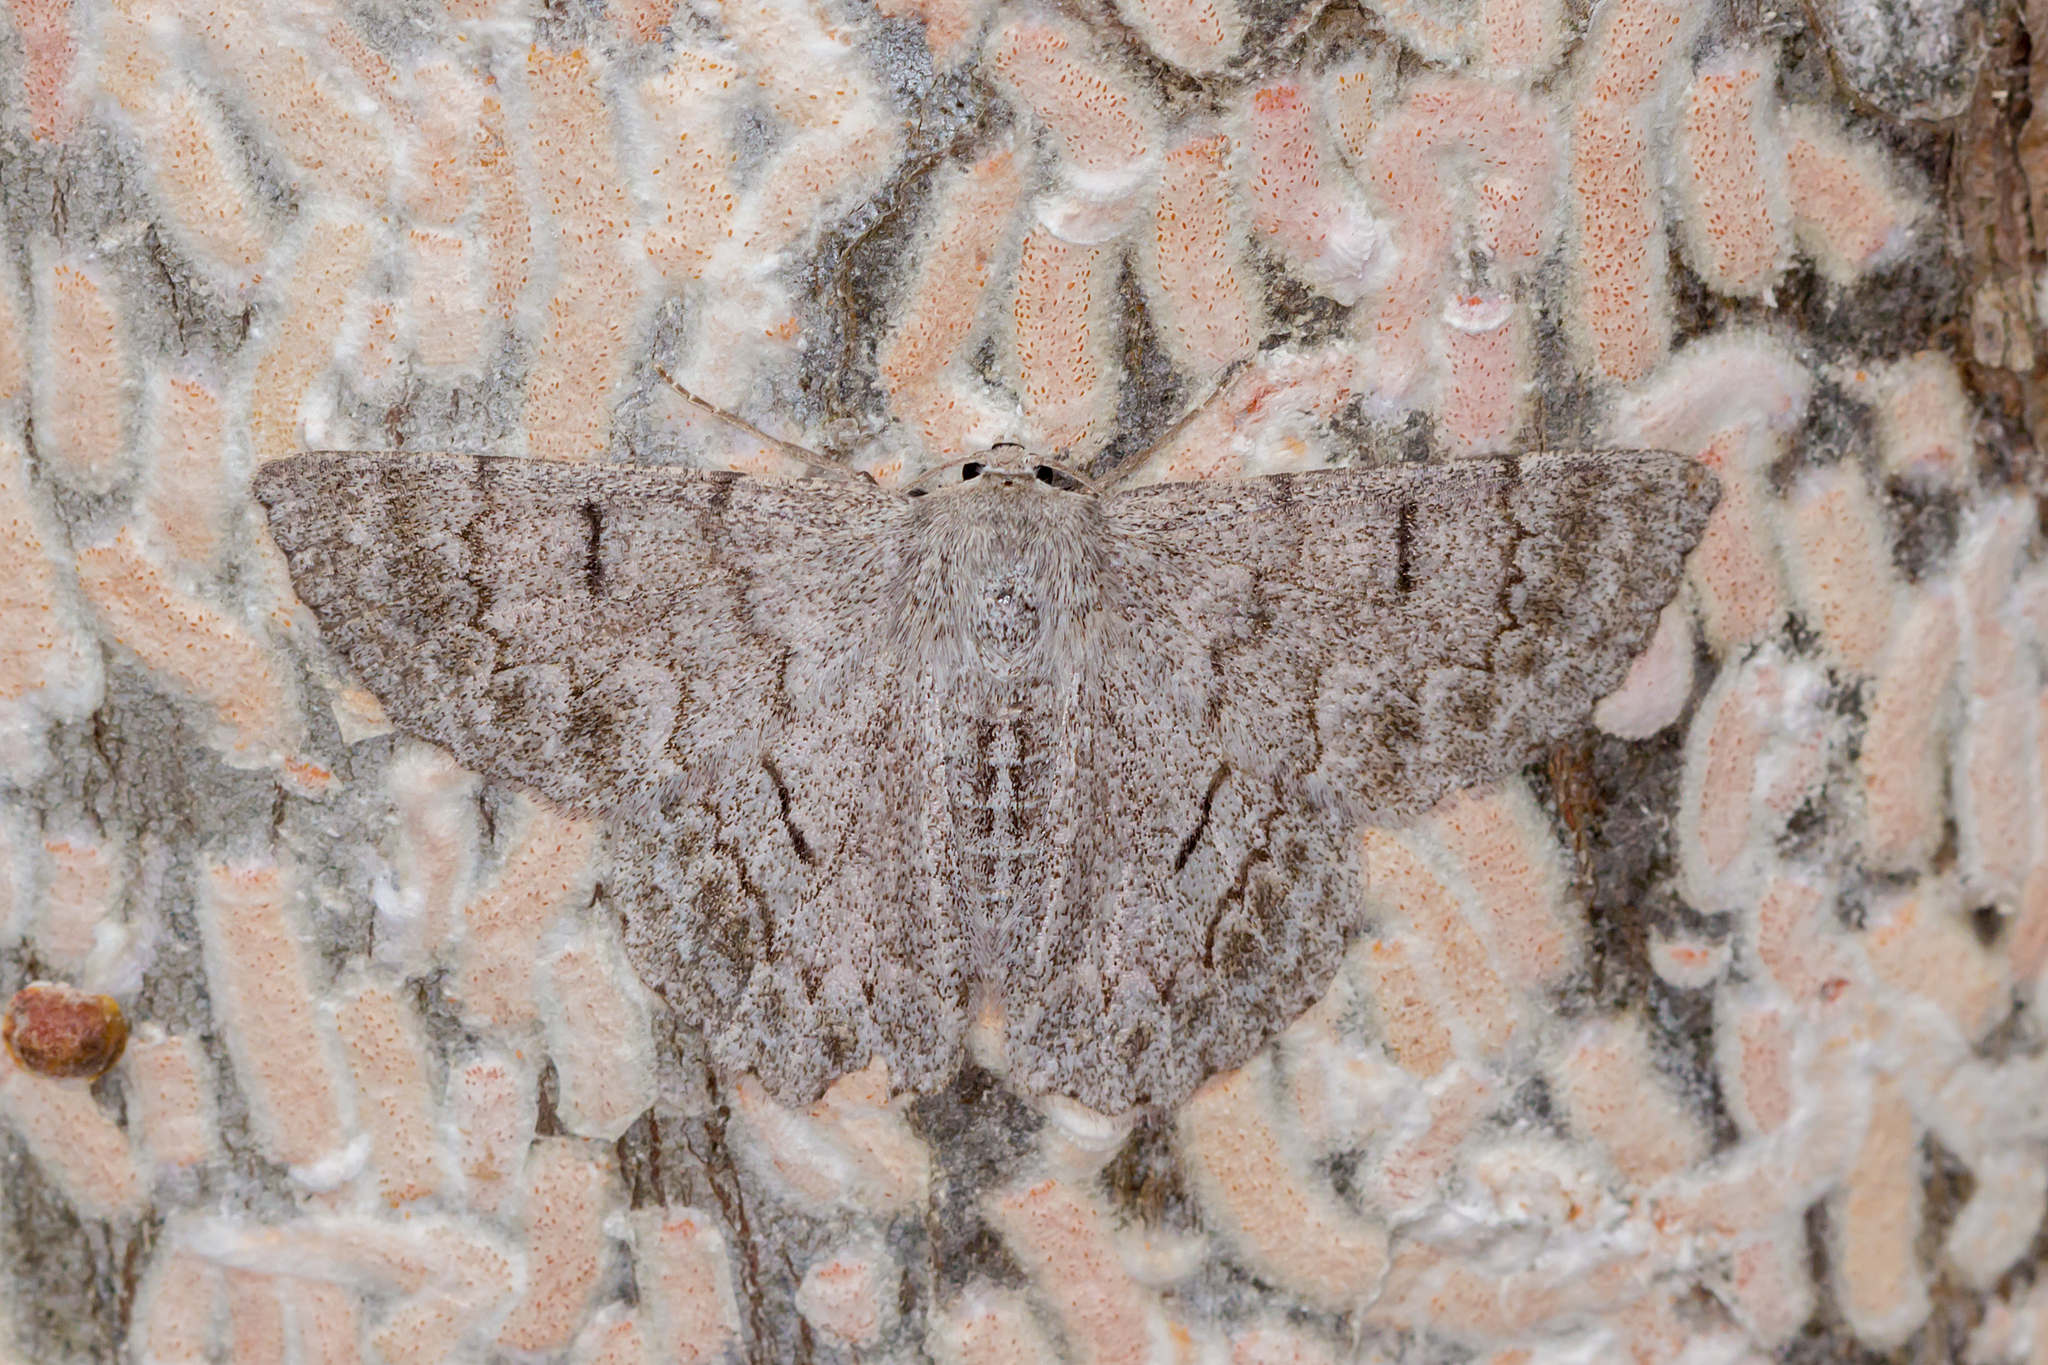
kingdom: Animalia
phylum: Arthropoda
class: Insecta
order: Lepidoptera
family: Geometridae
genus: Crypsiphona
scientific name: Crypsiphona ocultaria
